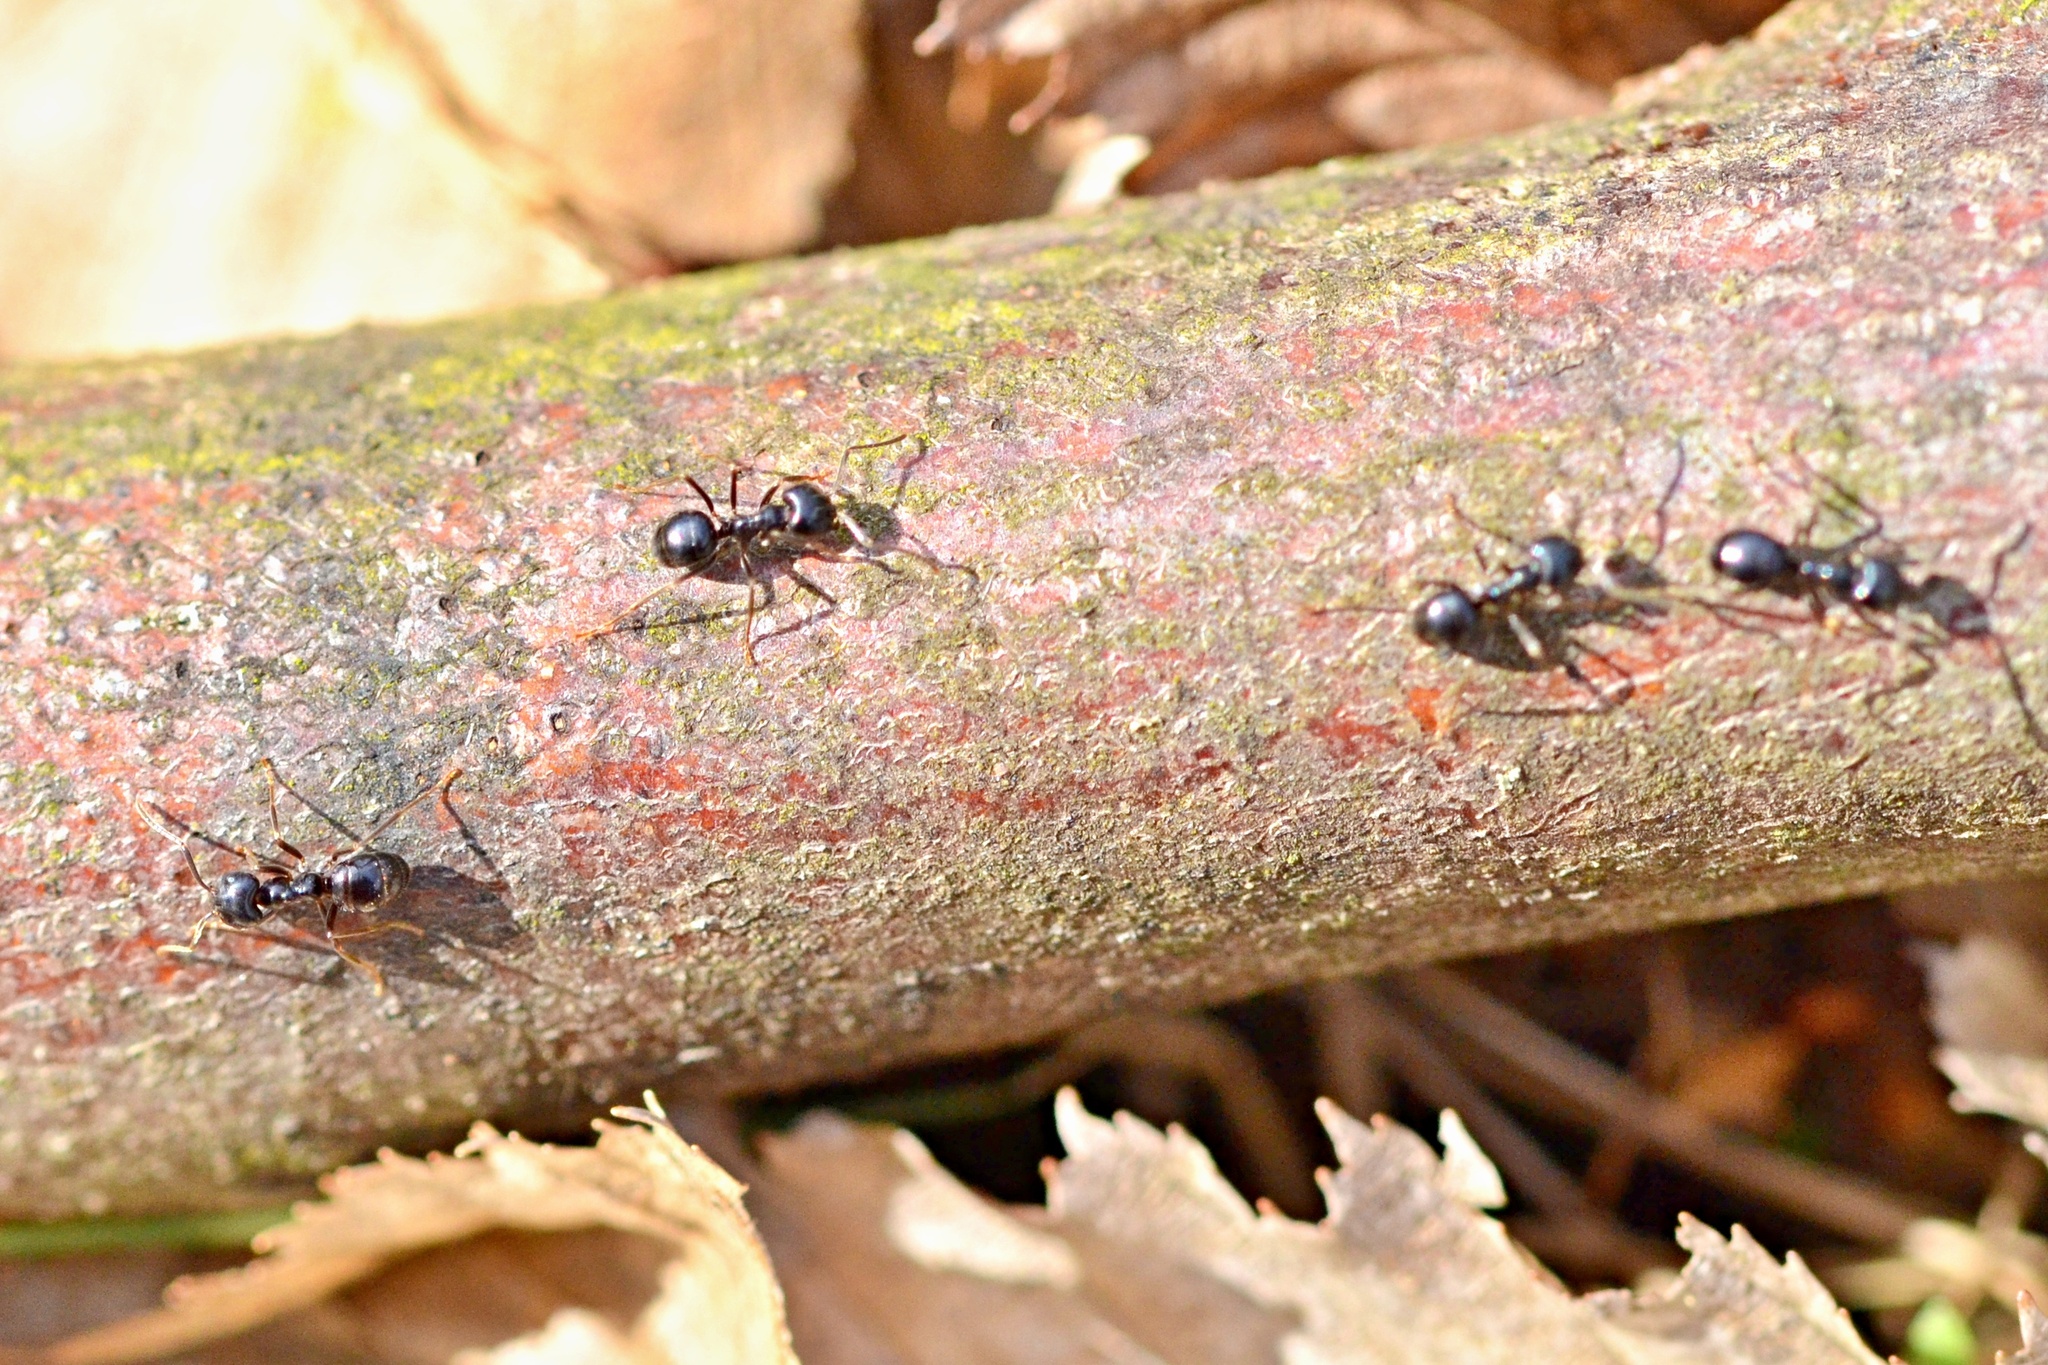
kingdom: Animalia
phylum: Arthropoda
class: Insecta
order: Hymenoptera
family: Formicidae
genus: Lasius
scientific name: Lasius fuliginosus
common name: Jet ant
